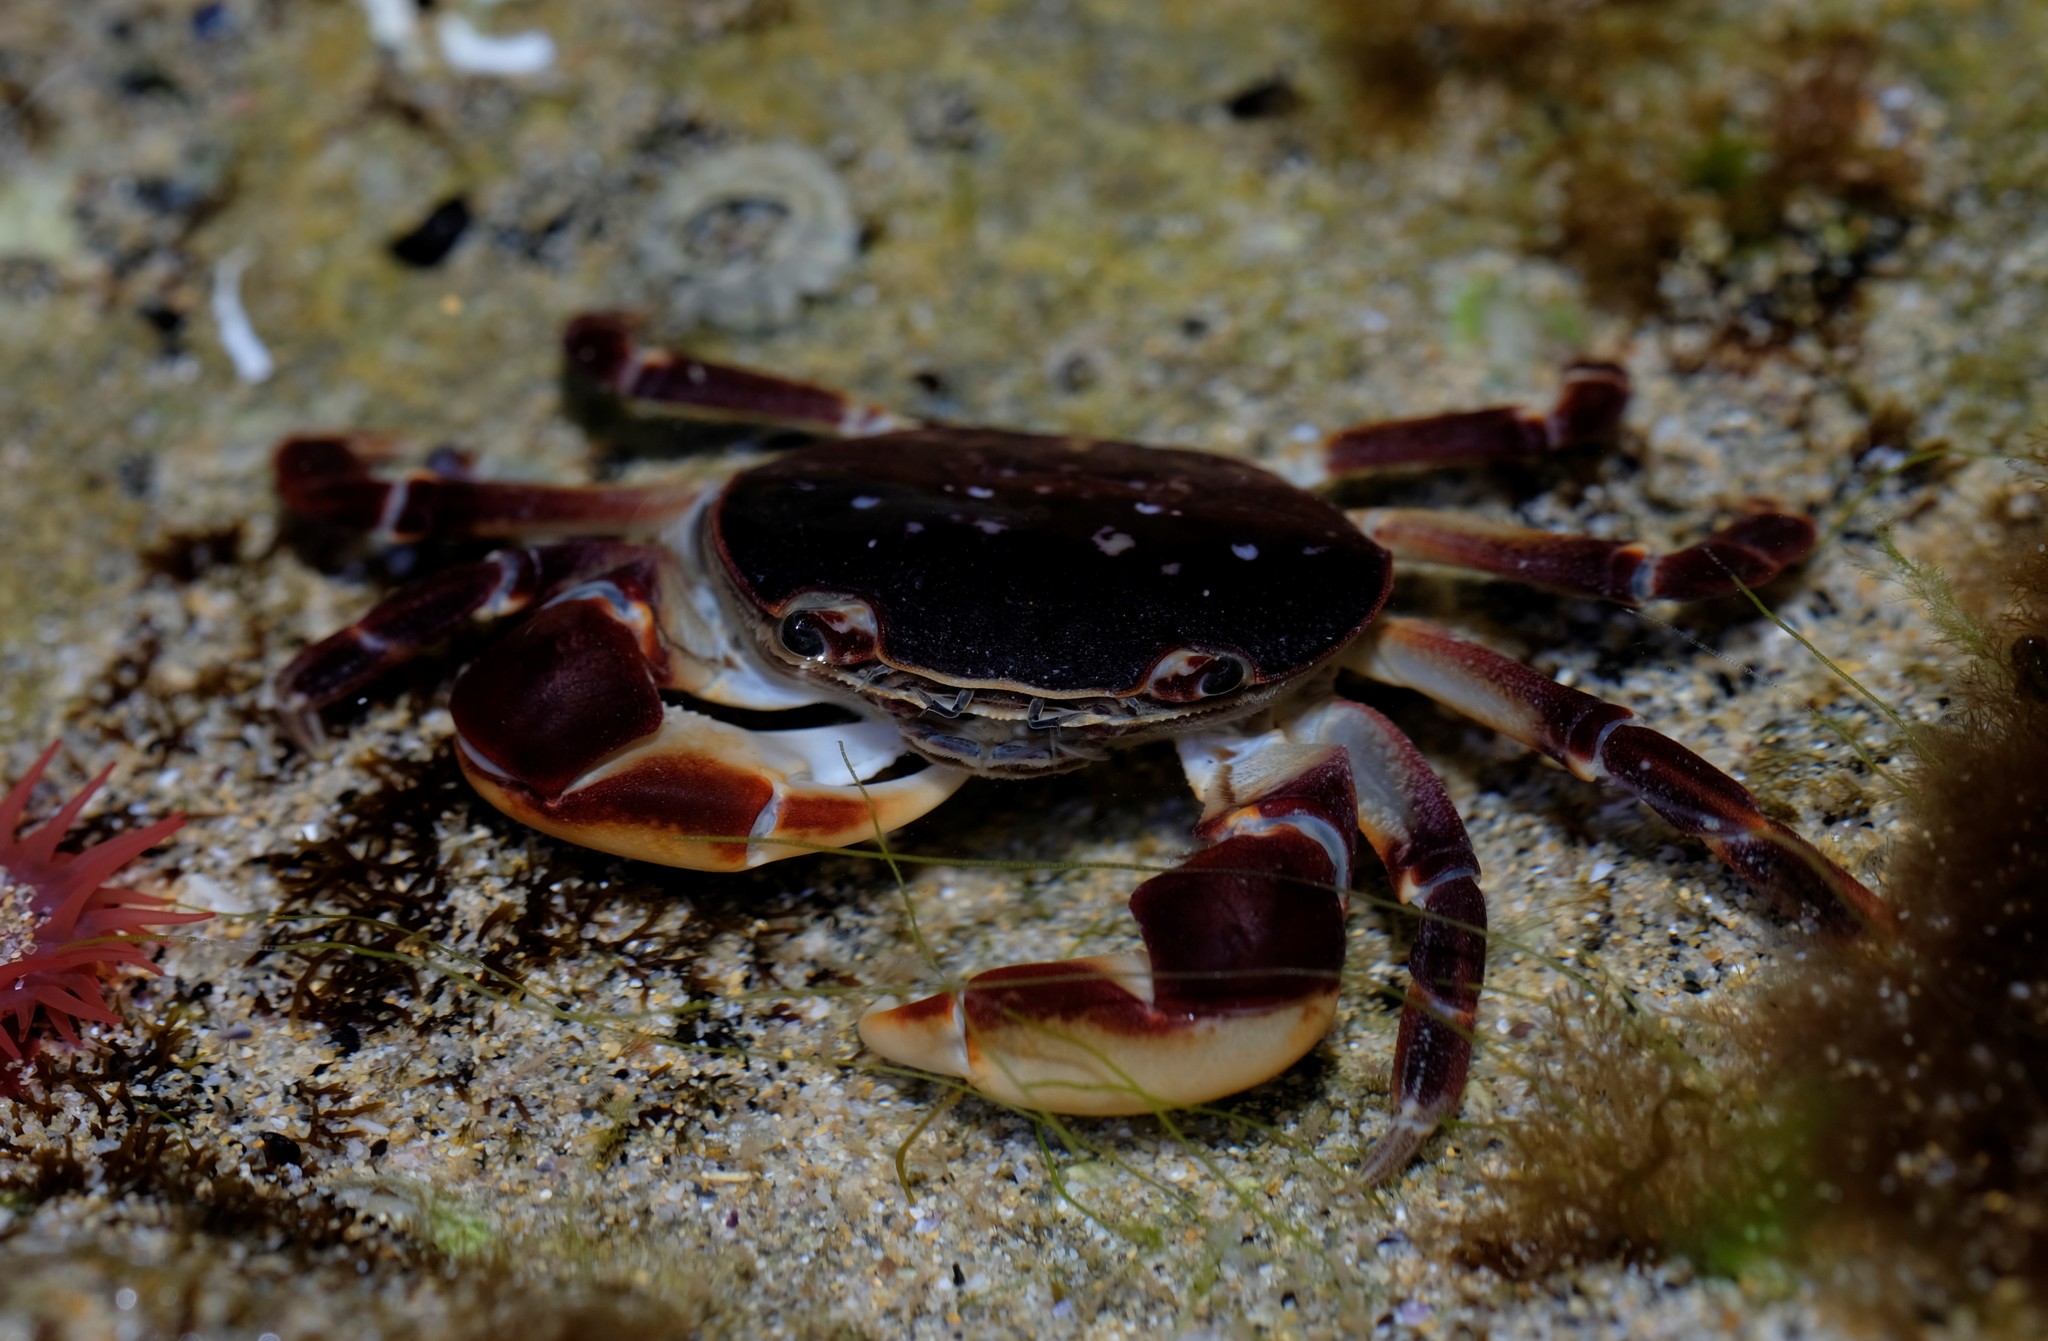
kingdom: Animalia
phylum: Arthropoda
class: Malacostraca
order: Decapoda
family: Varunidae
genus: Cyclograpsus
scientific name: Cyclograpsus granulosus
